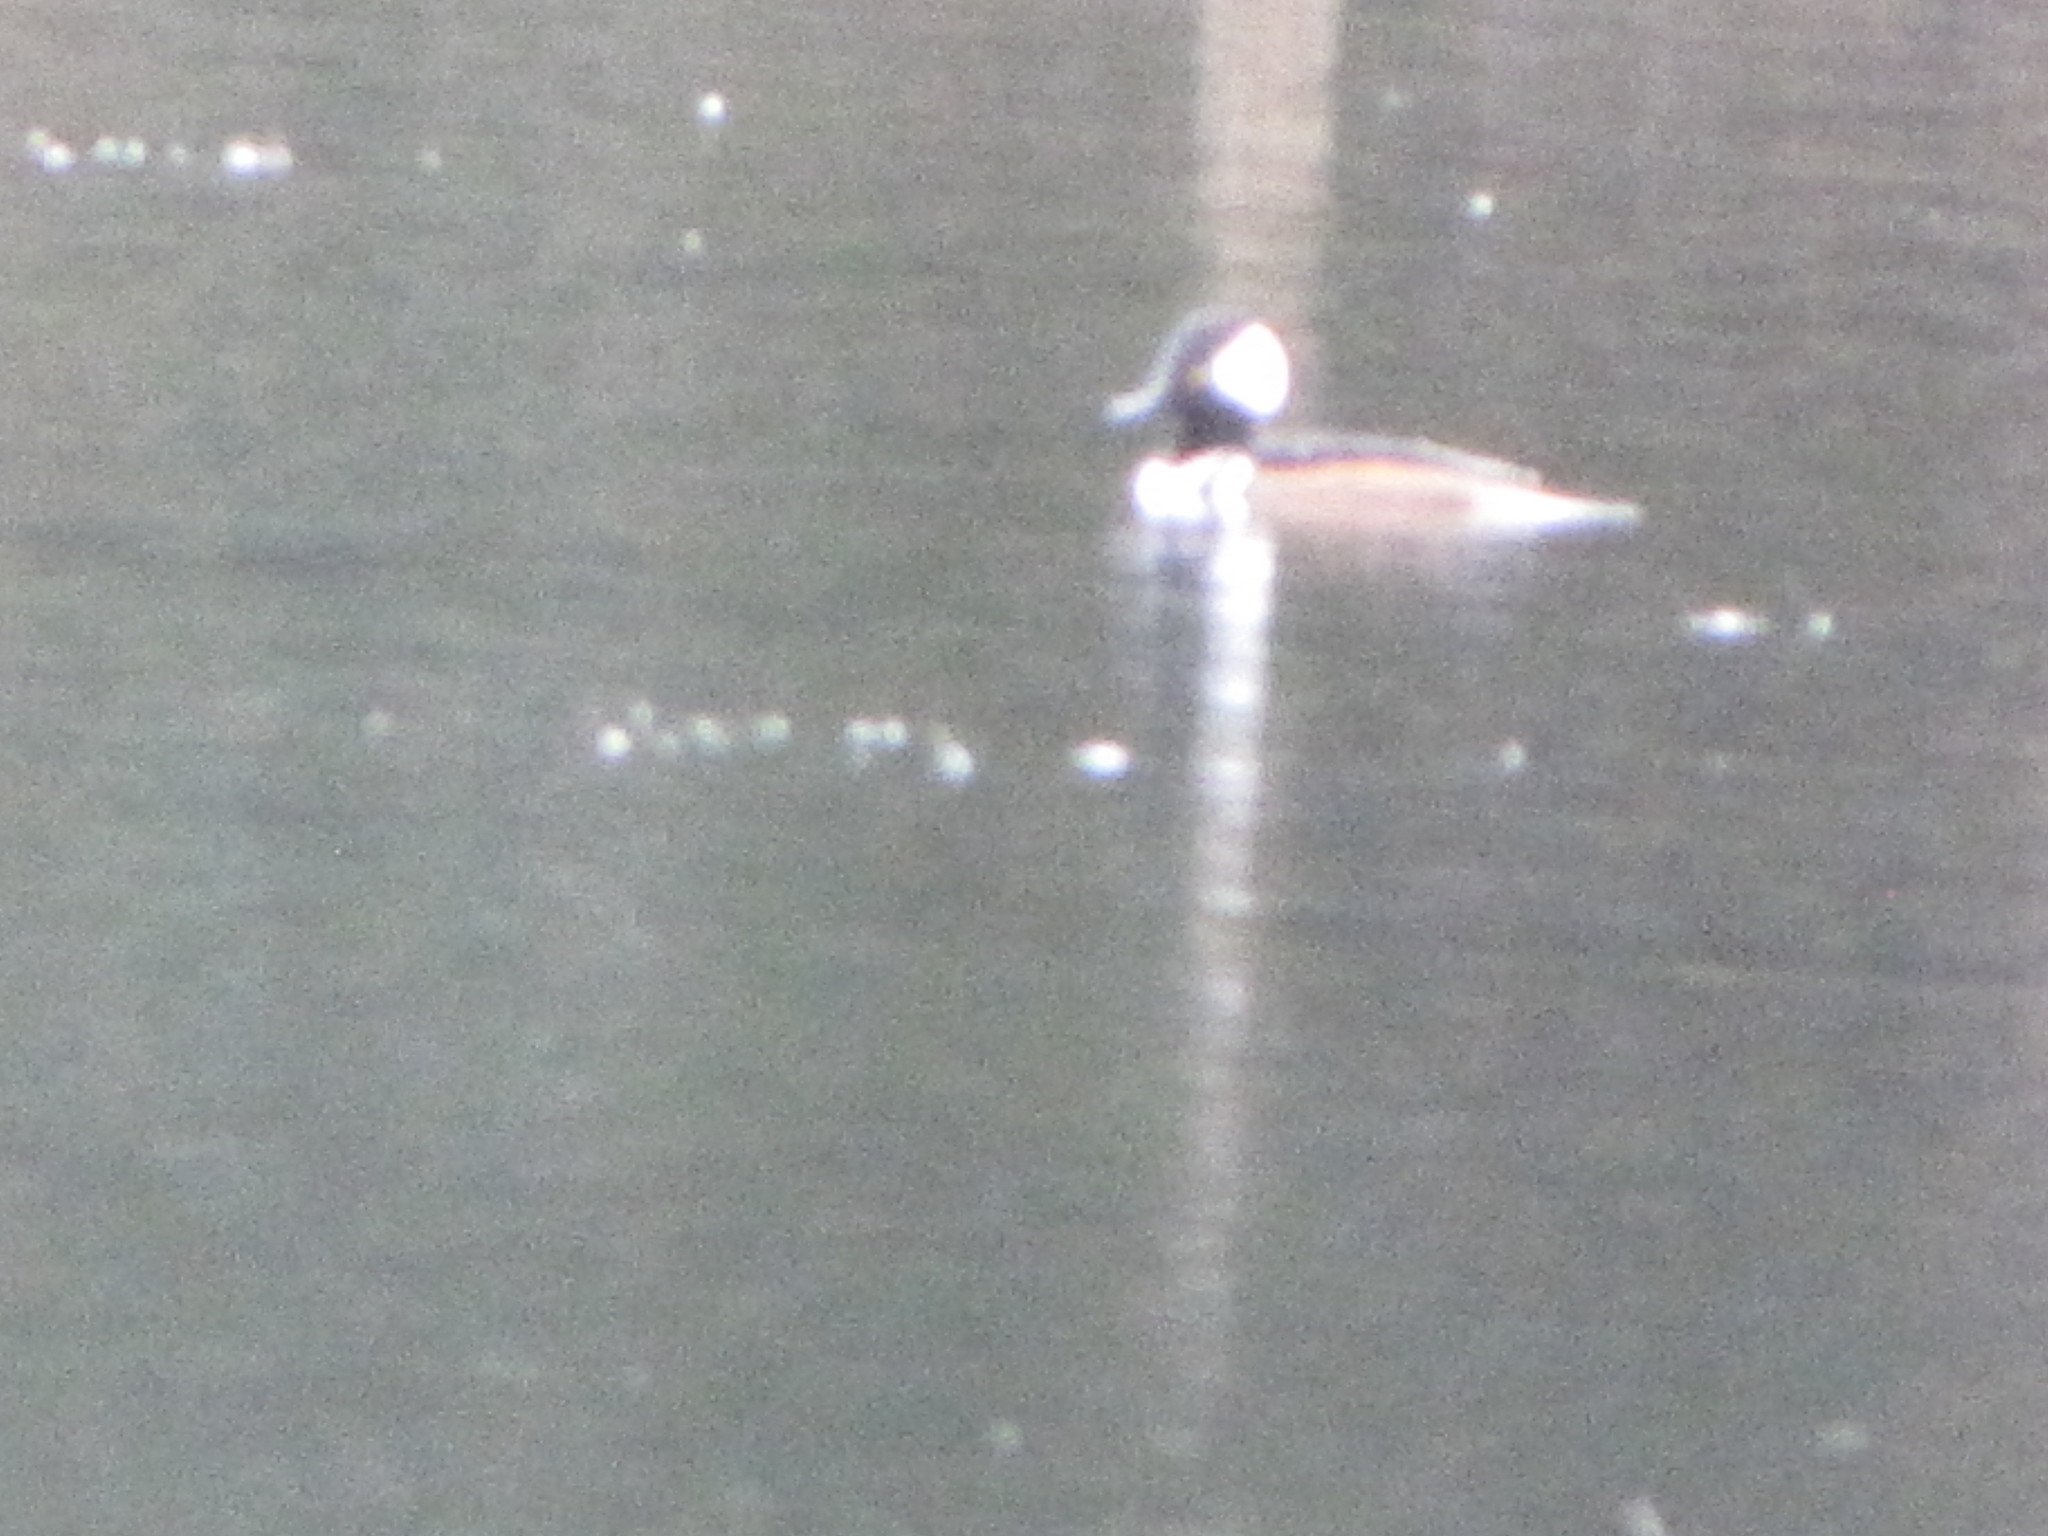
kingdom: Animalia
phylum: Chordata
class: Aves
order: Anseriformes
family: Anatidae
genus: Lophodytes
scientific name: Lophodytes cucullatus
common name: Hooded merganser
